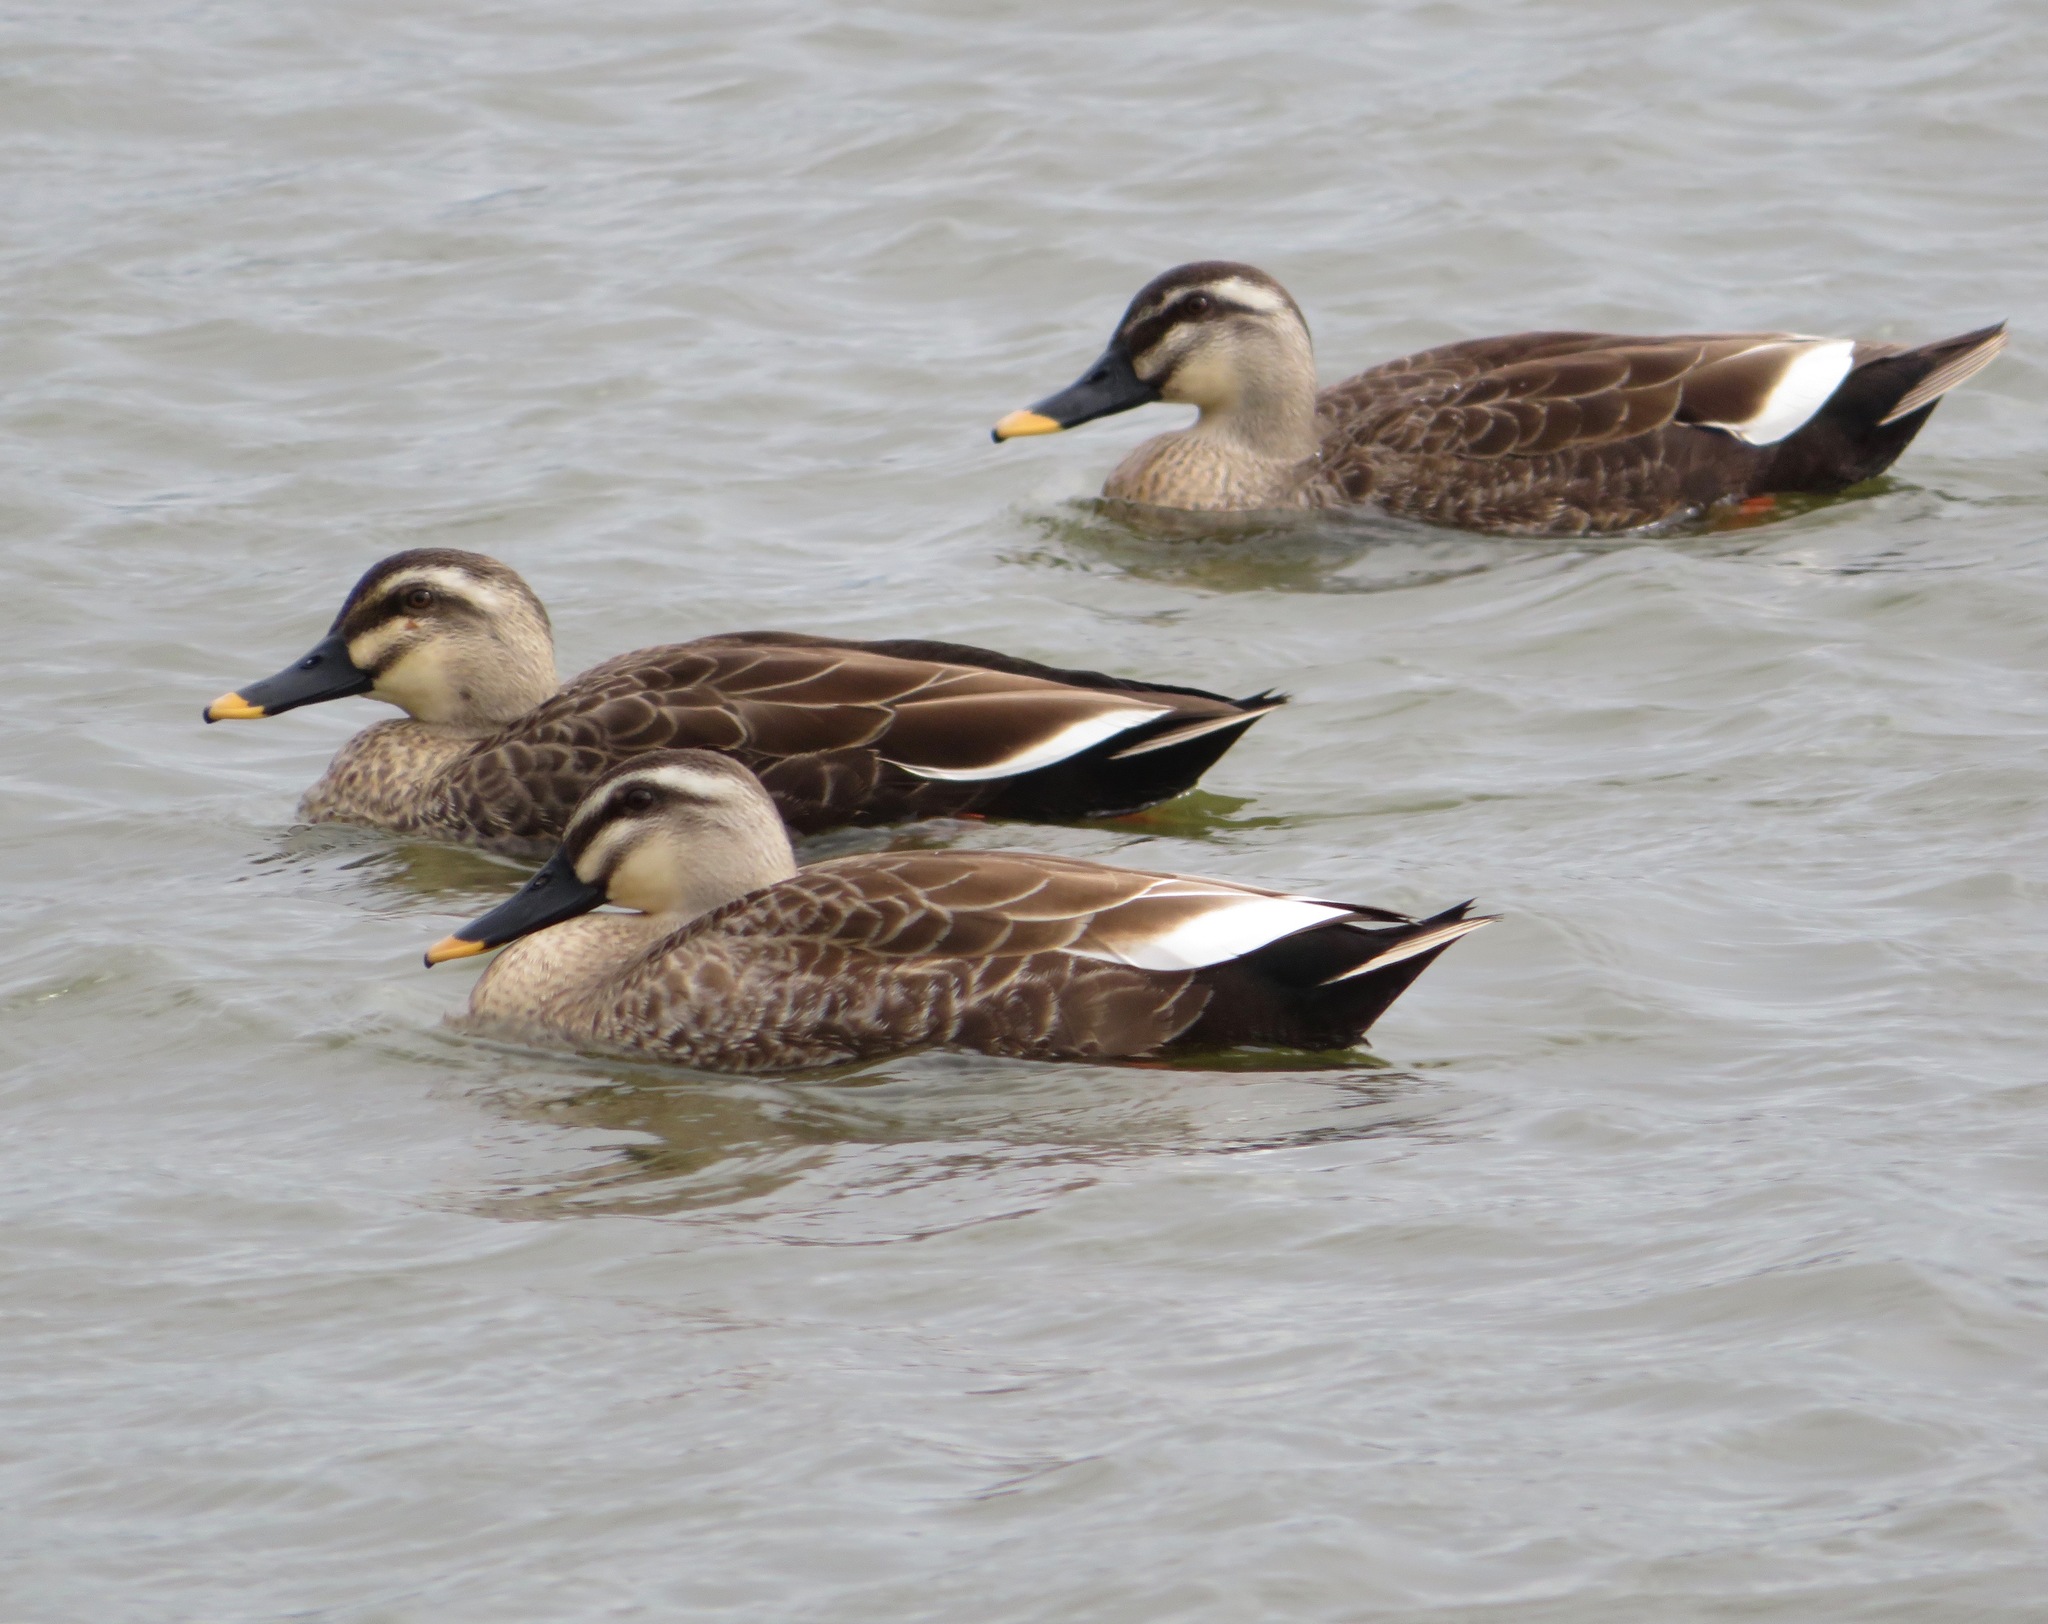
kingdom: Animalia
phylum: Chordata
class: Aves
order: Anseriformes
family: Anatidae
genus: Anas
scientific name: Anas zonorhyncha
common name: Eastern spot-billed duck
